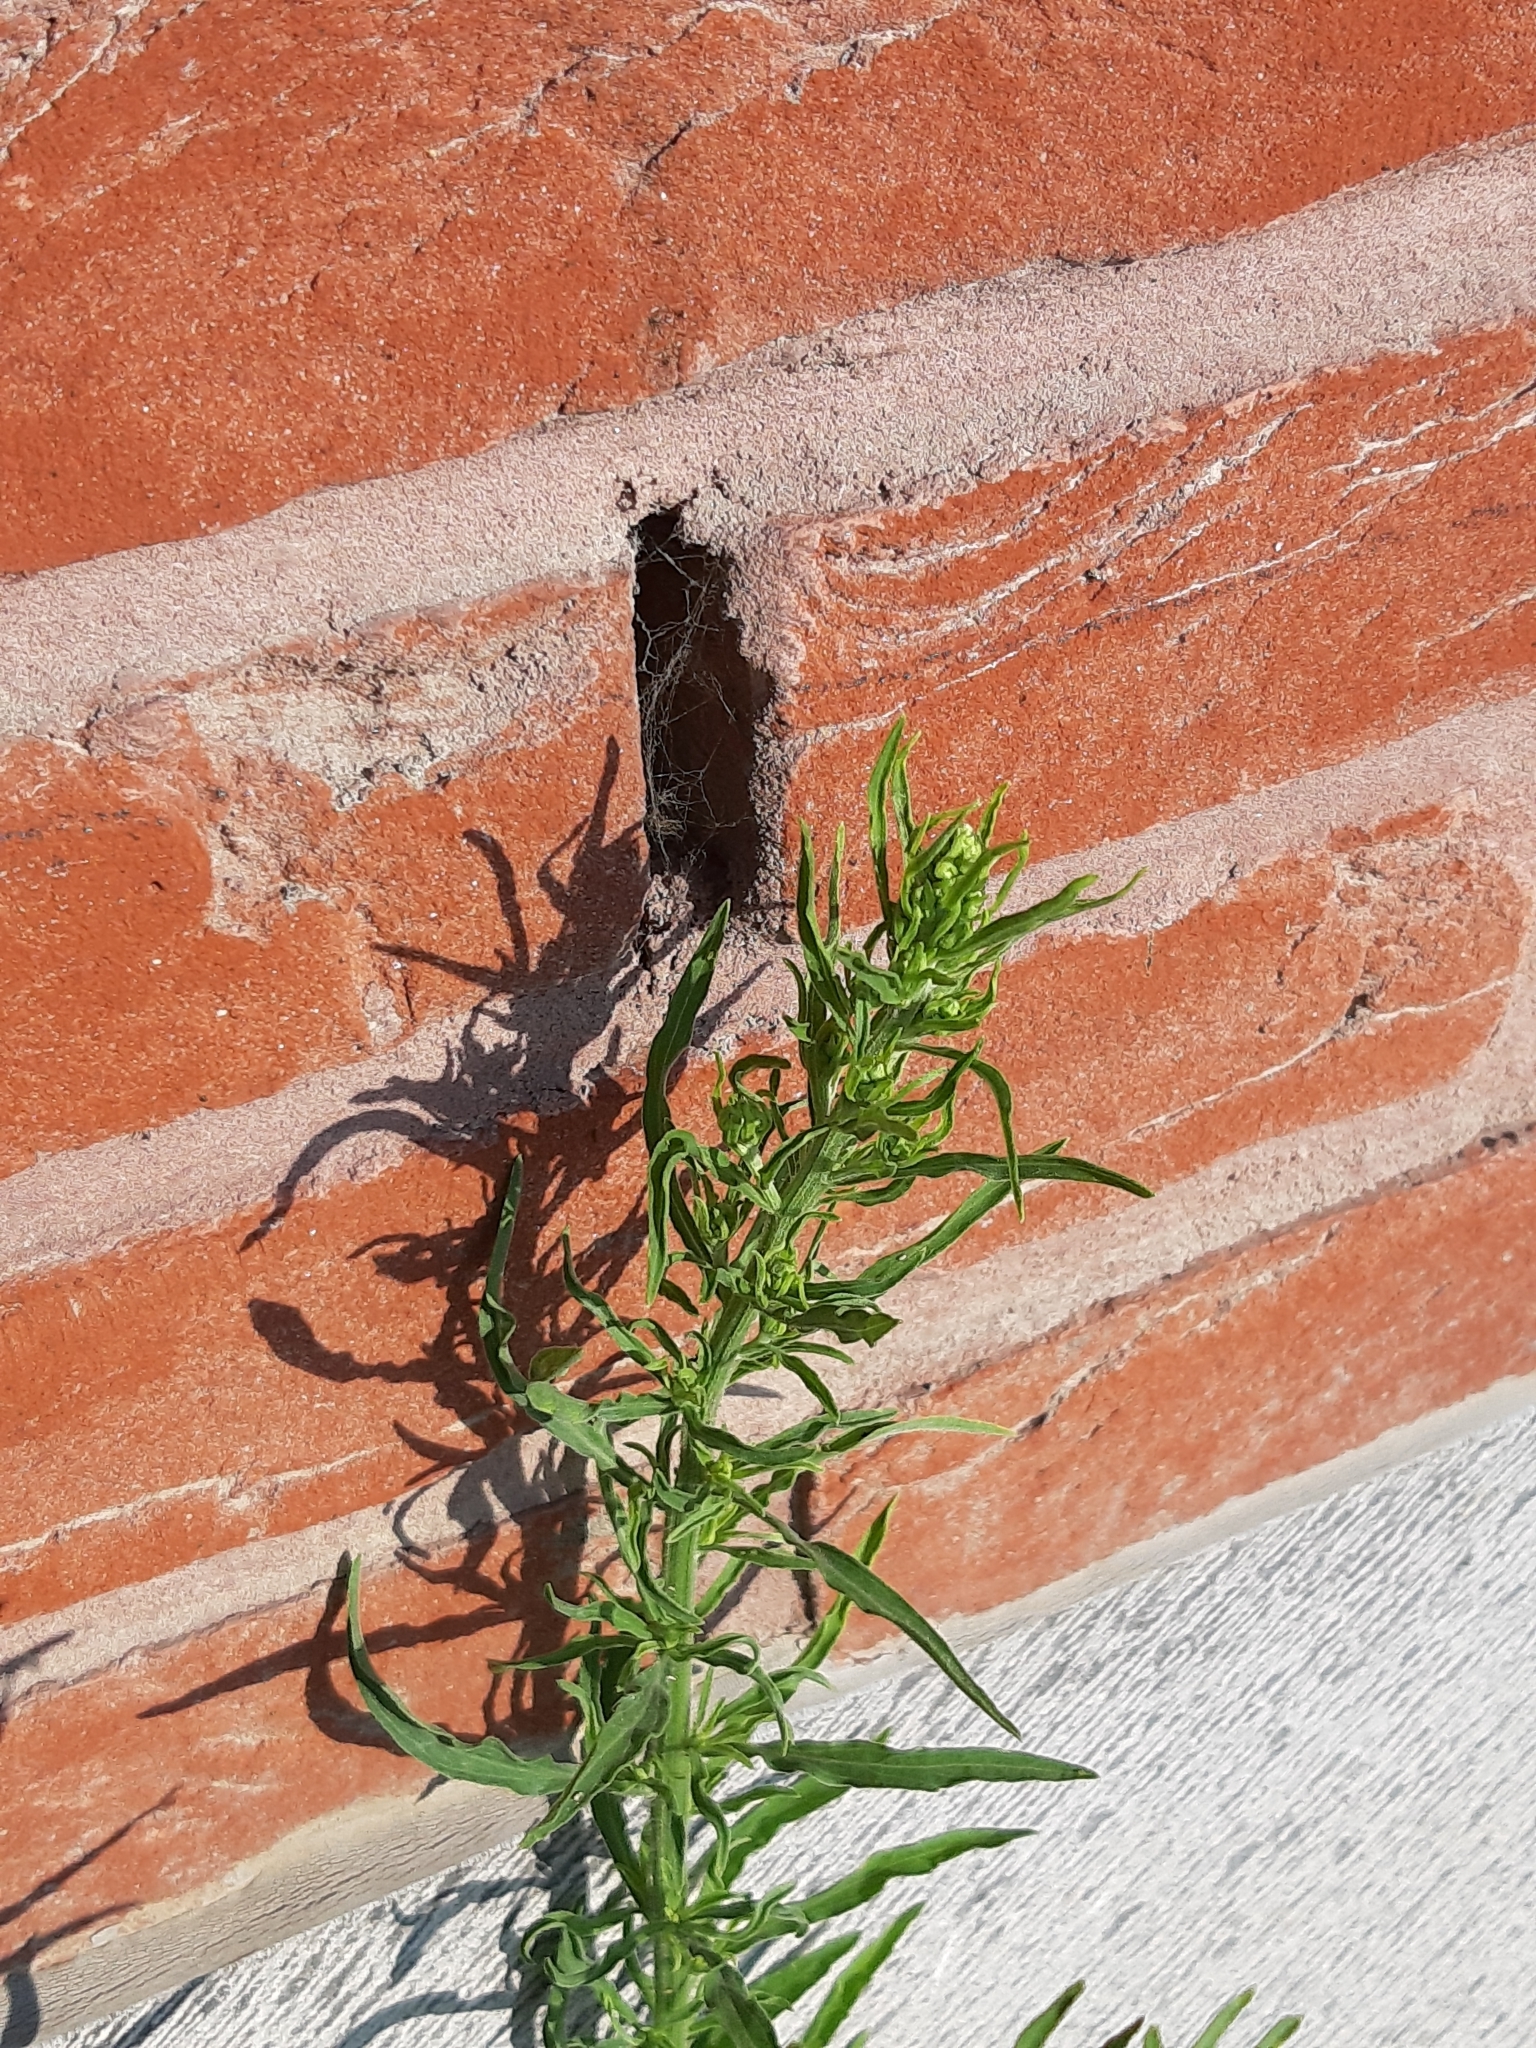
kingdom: Plantae
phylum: Tracheophyta
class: Magnoliopsida
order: Asterales
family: Asteraceae
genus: Erigeron
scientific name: Erigeron canadensis
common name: Canadian fleabane
